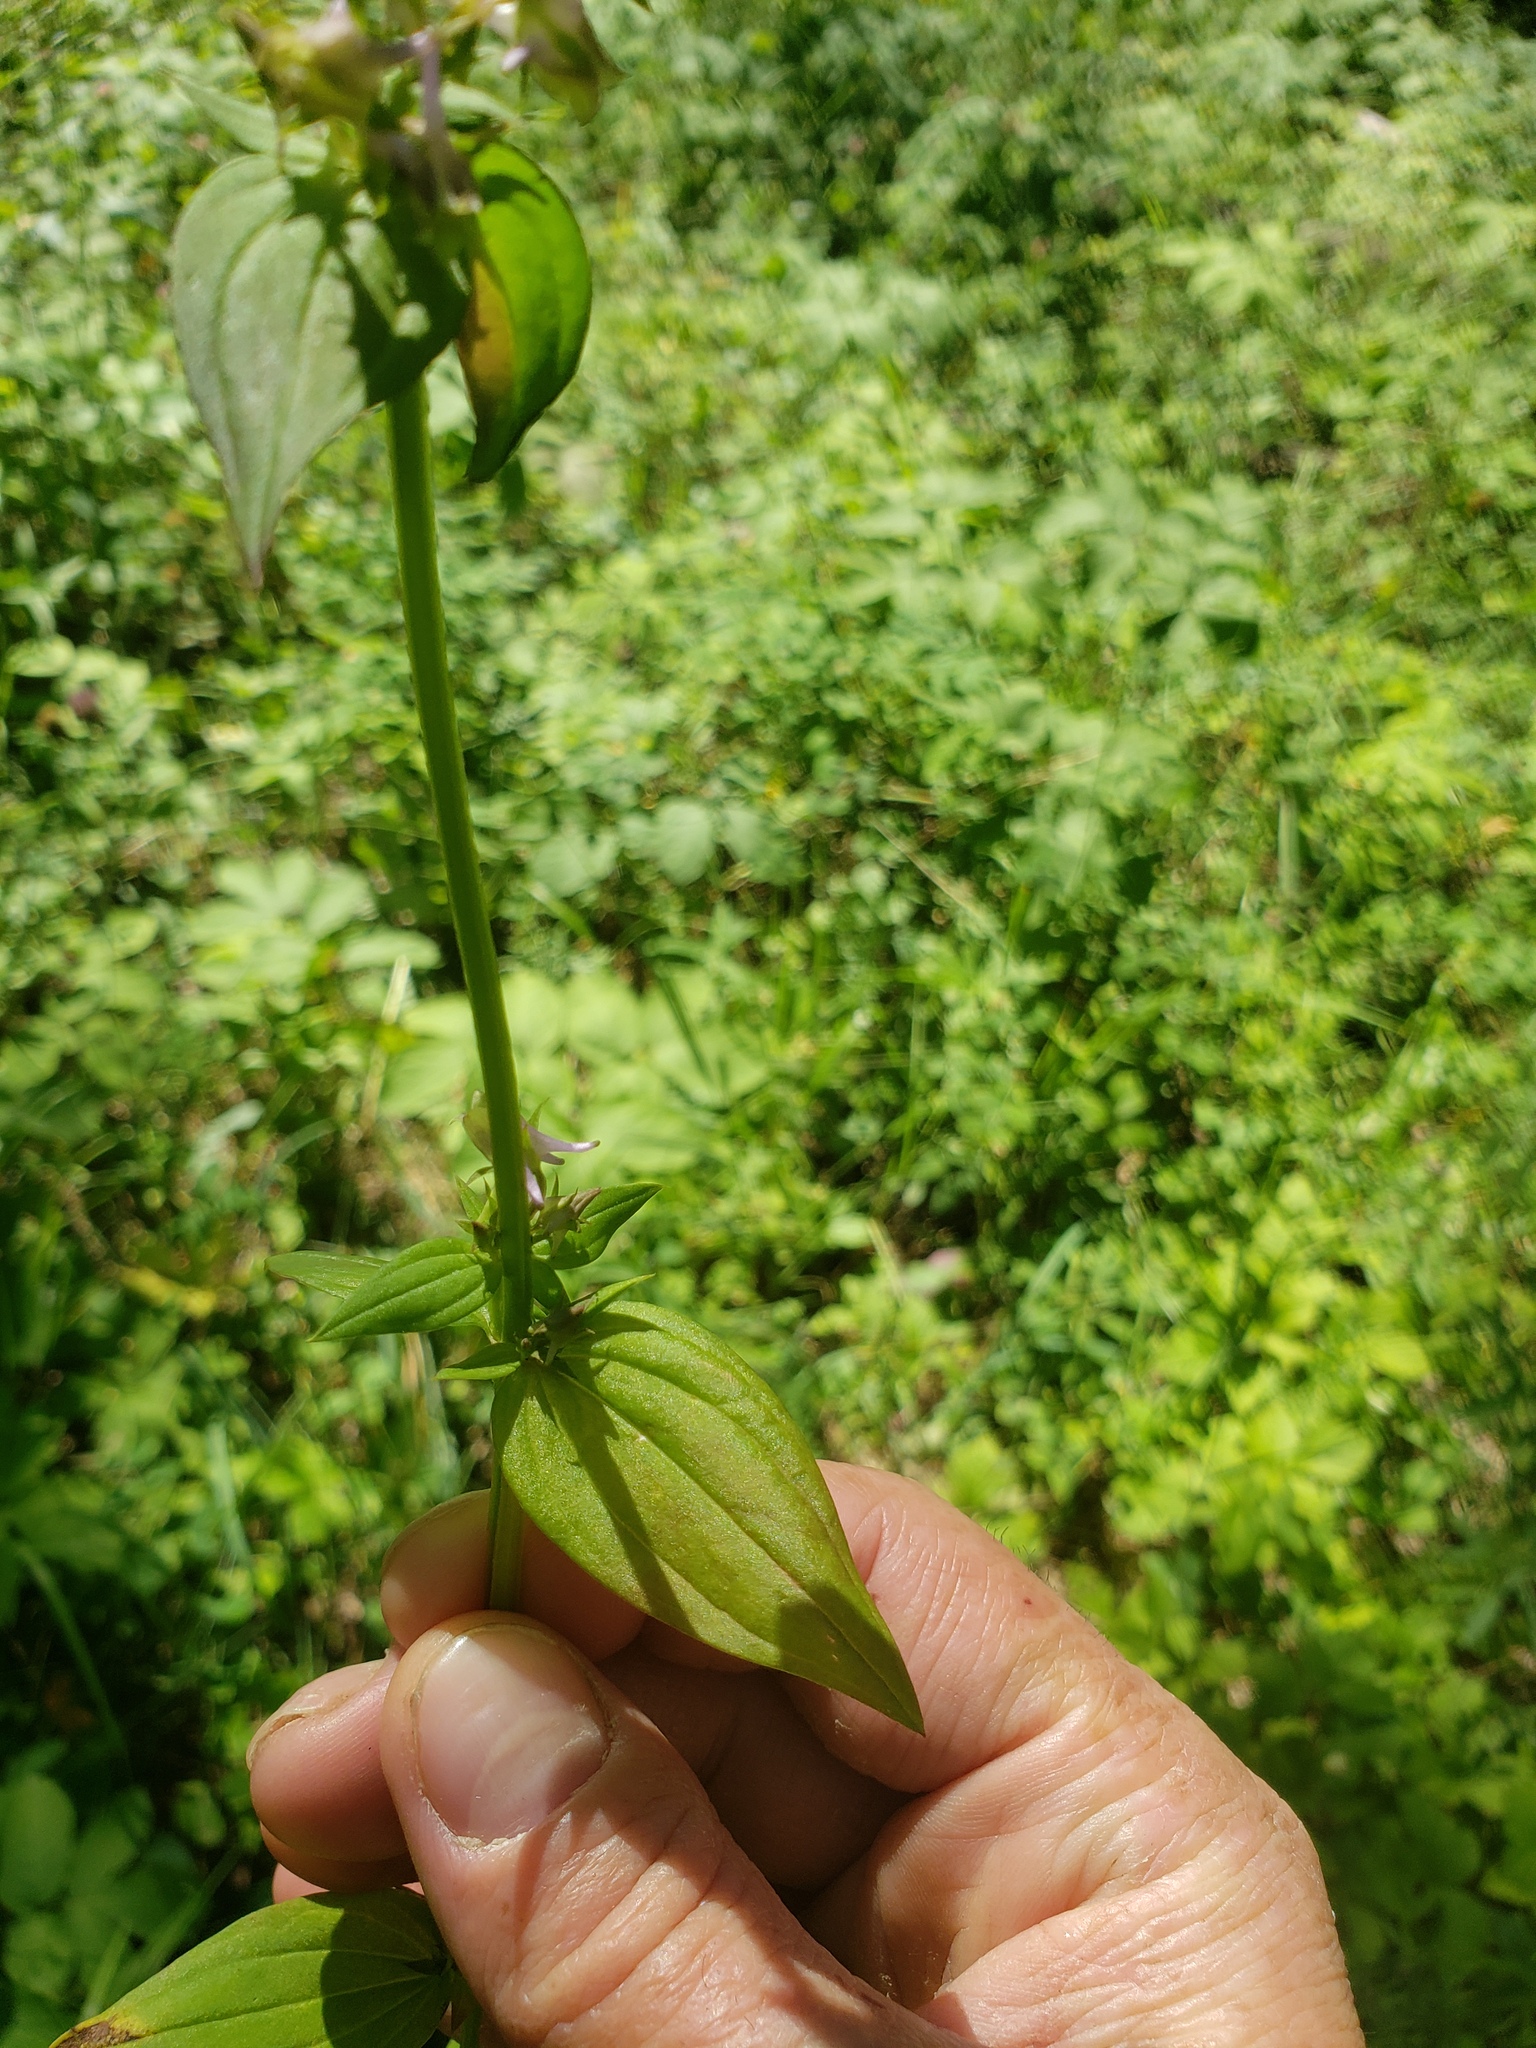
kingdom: Plantae
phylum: Tracheophyta
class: Magnoliopsida
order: Gentianales
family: Gentianaceae
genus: Halenia
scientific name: Halenia deflexa
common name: American spurred gentian
